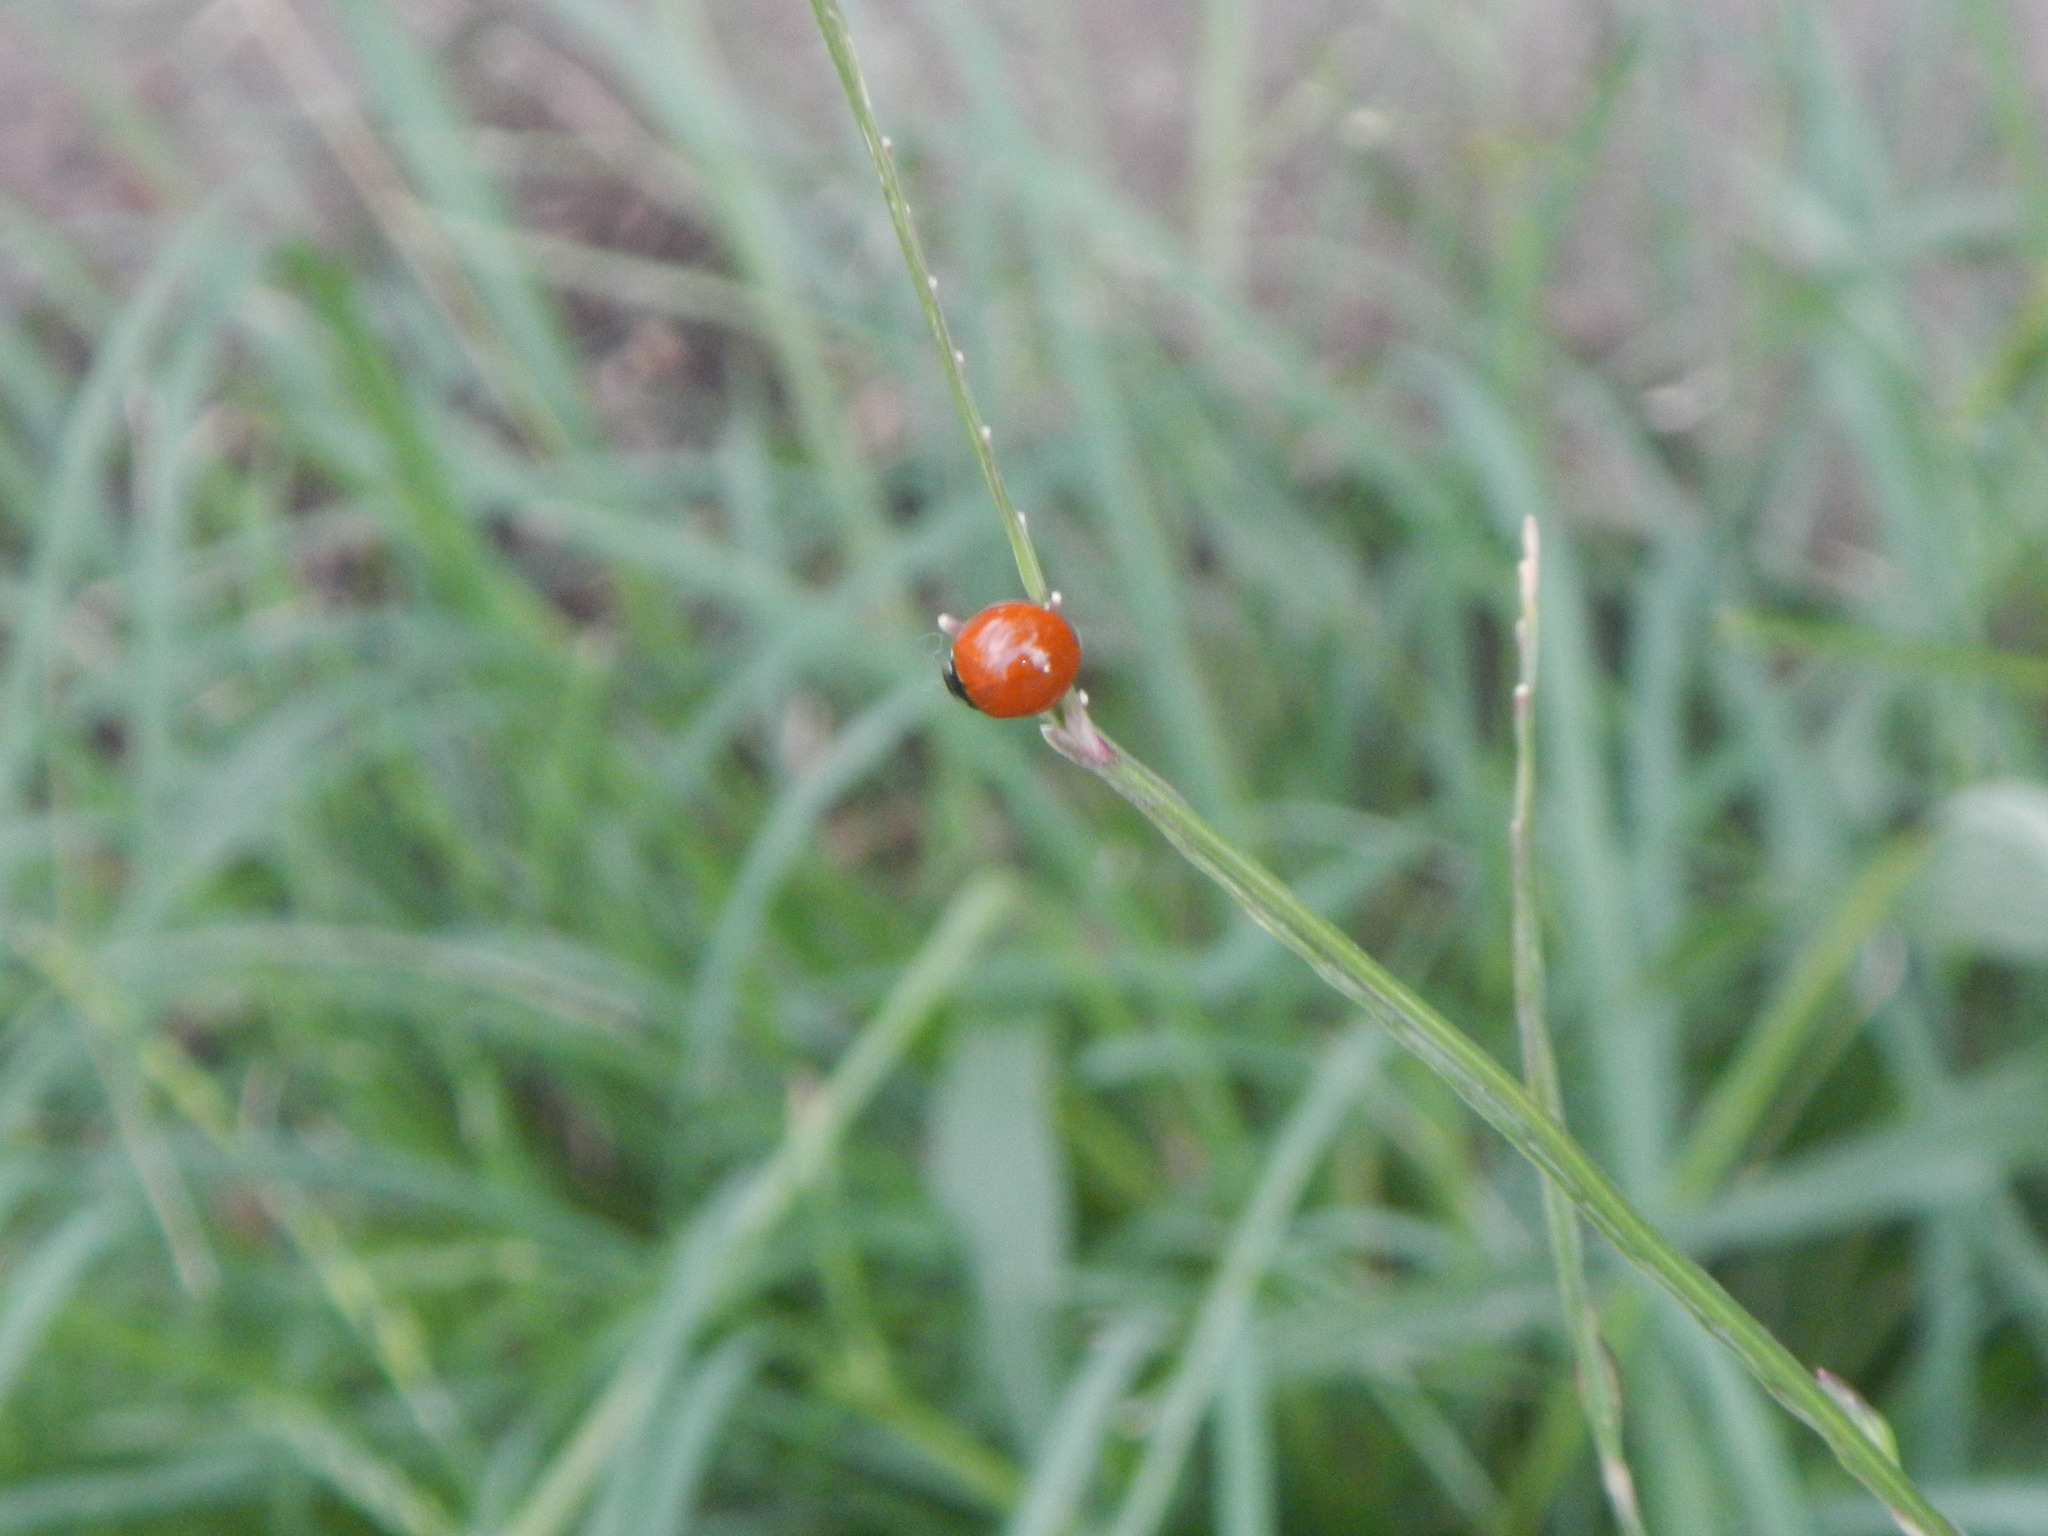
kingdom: Animalia
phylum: Arthropoda
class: Insecta
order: Coleoptera
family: Coccinellidae
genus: Cycloneda
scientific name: Cycloneda sanguinea
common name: Ladybird beetle
